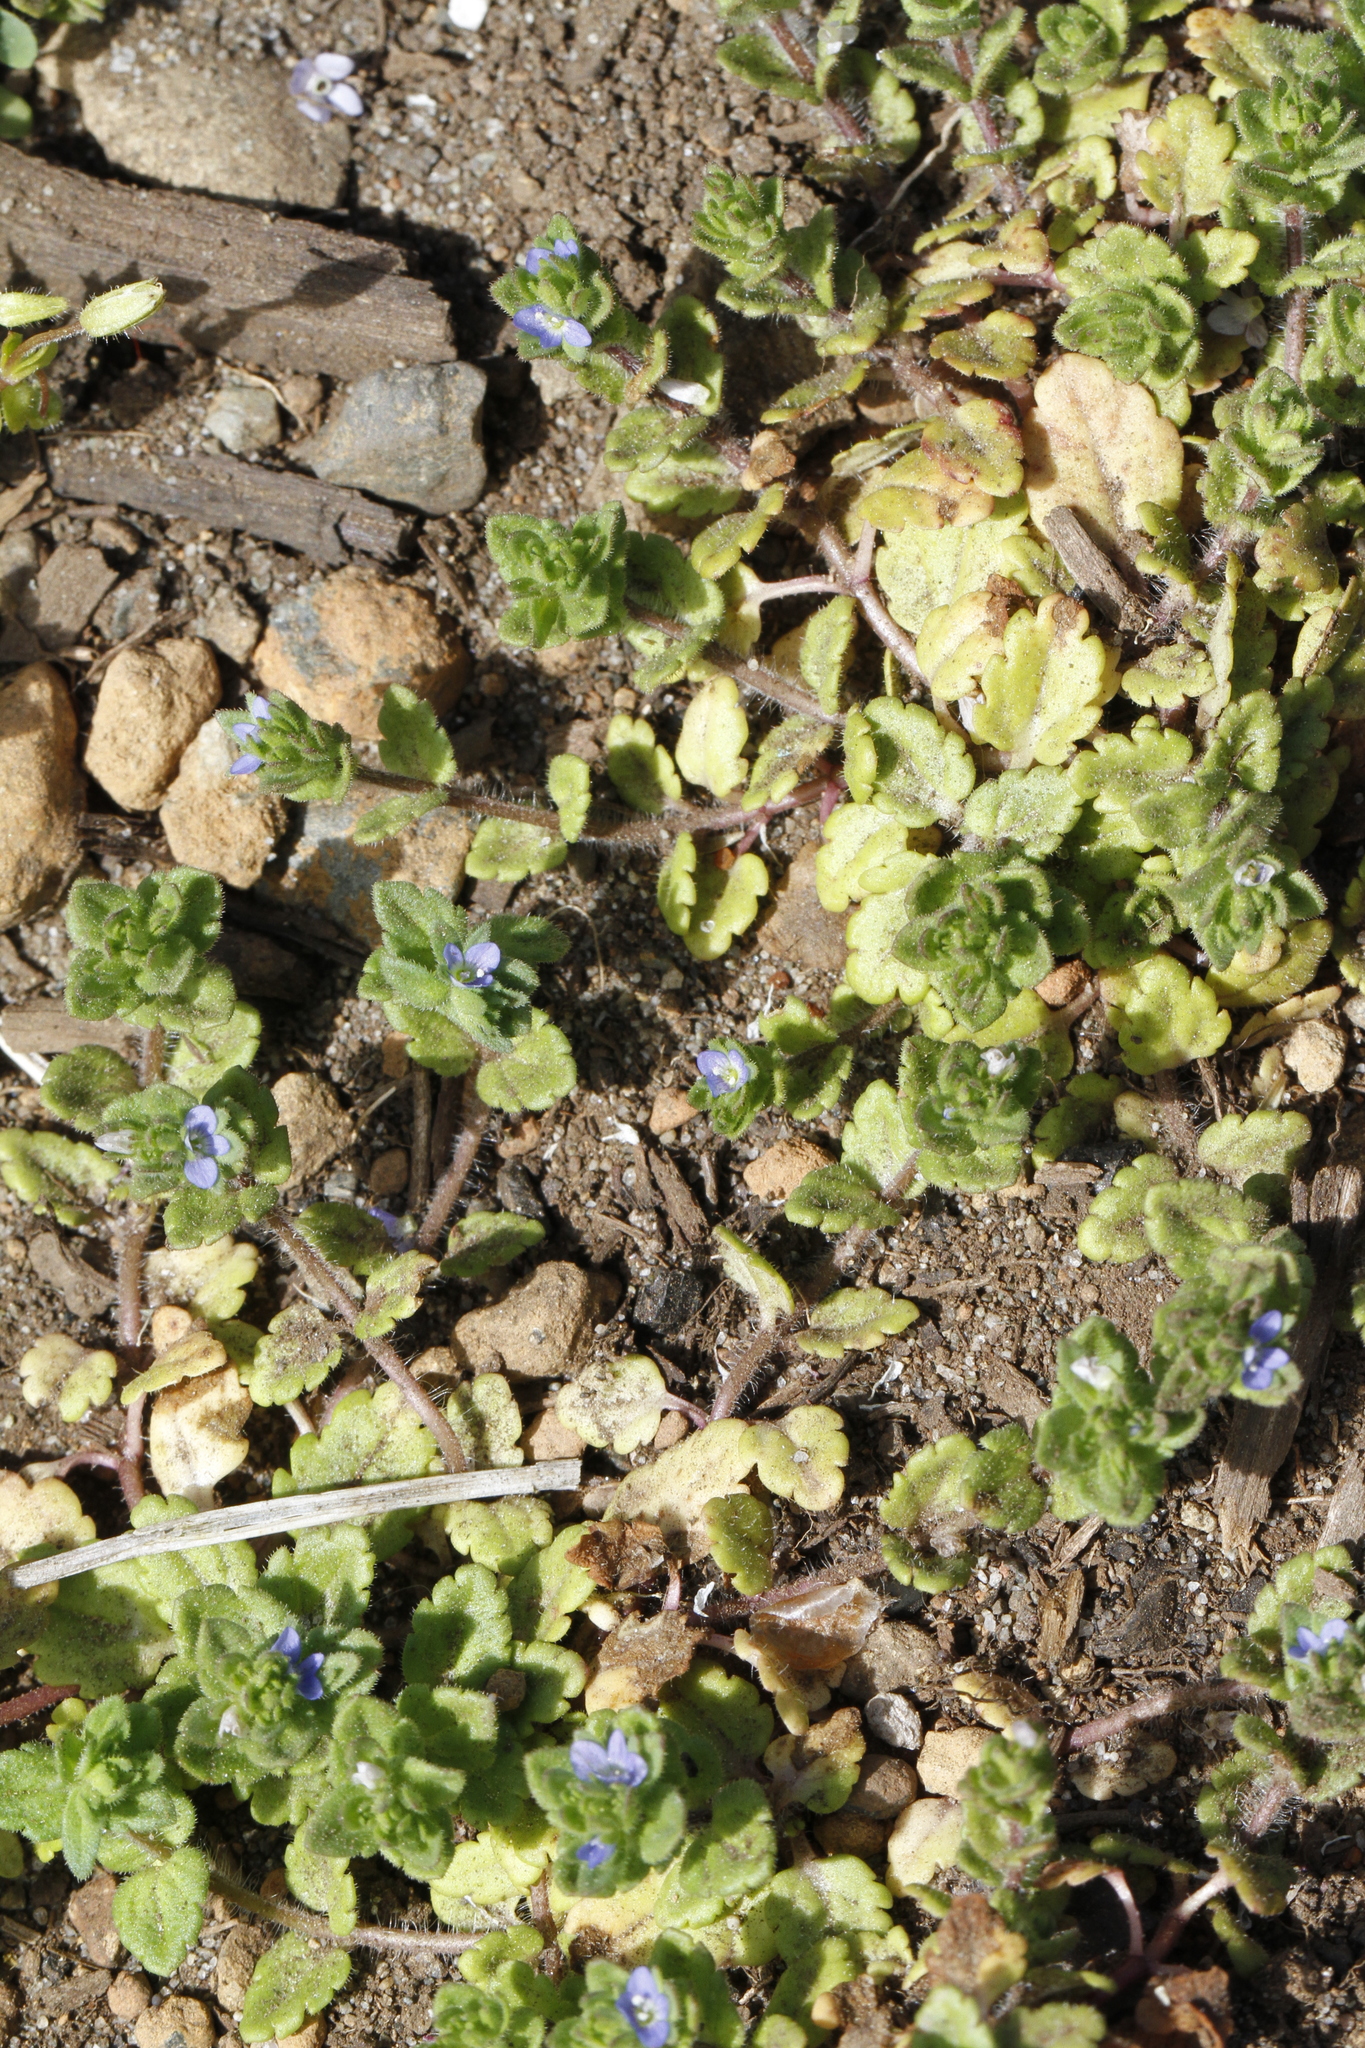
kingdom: Plantae
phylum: Tracheophyta
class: Magnoliopsida
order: Lamiales
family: Plantaginaceae
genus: Veronica
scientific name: Veronica arvensis
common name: Corn speedwell
